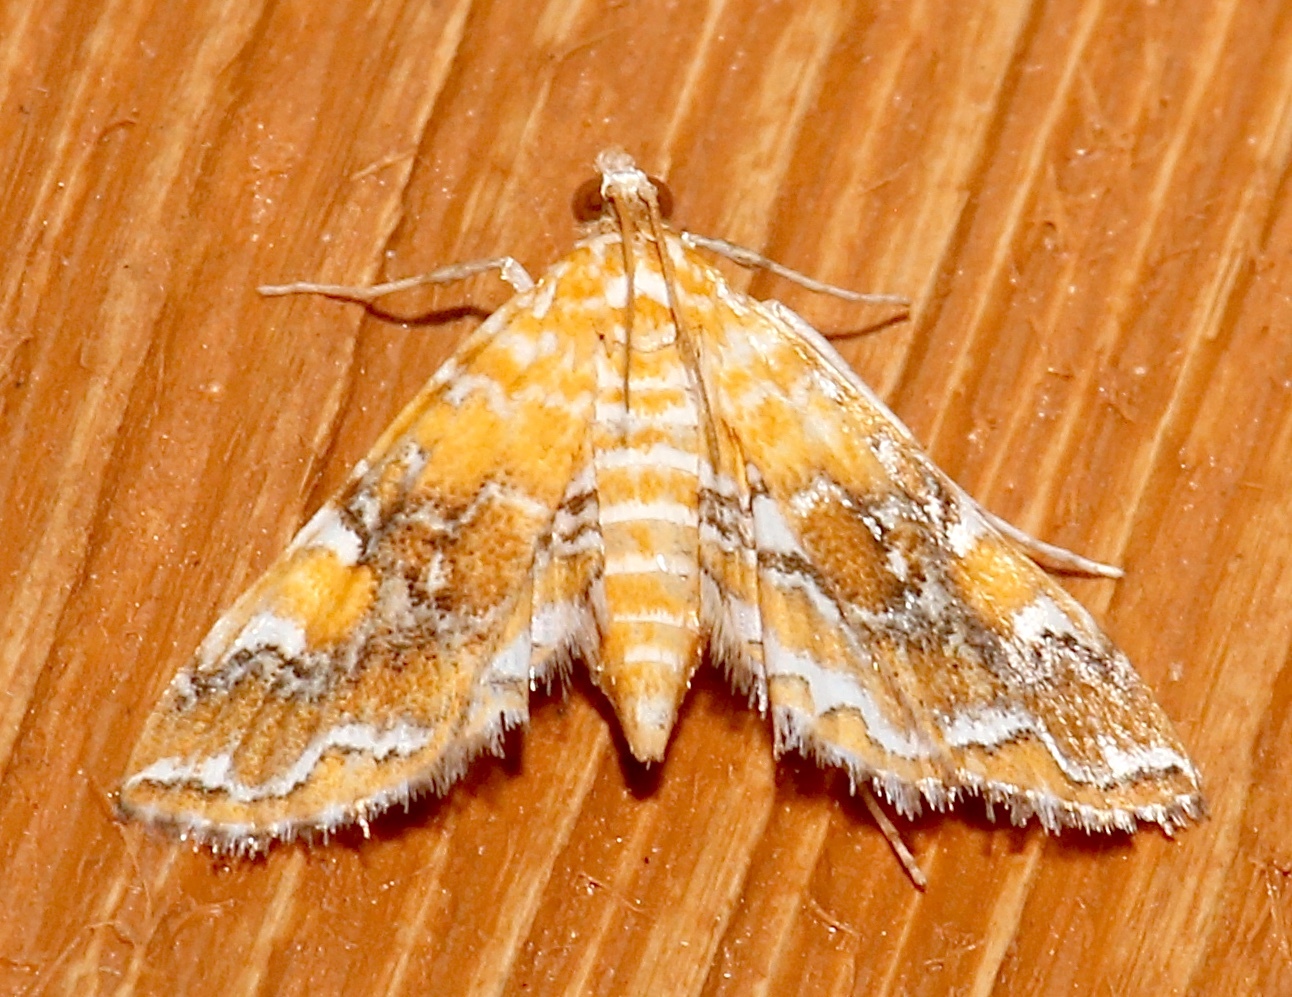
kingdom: Animalia
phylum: Arthropoda
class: Insecta
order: Lepidoptera
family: Crambidae
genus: Elophila
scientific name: Elophila nebulosalis
